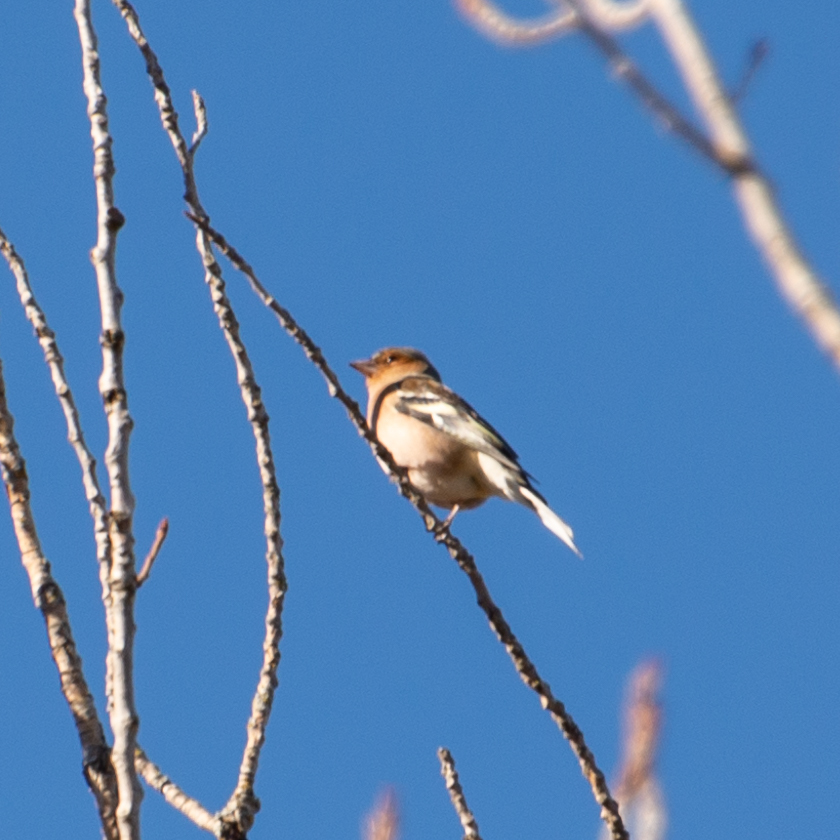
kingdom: Animalia
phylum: Chordata
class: Aves
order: Passeriformes
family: Fringillidae
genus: Fringilla
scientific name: Fringilla coelebs
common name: Common chaffinch
